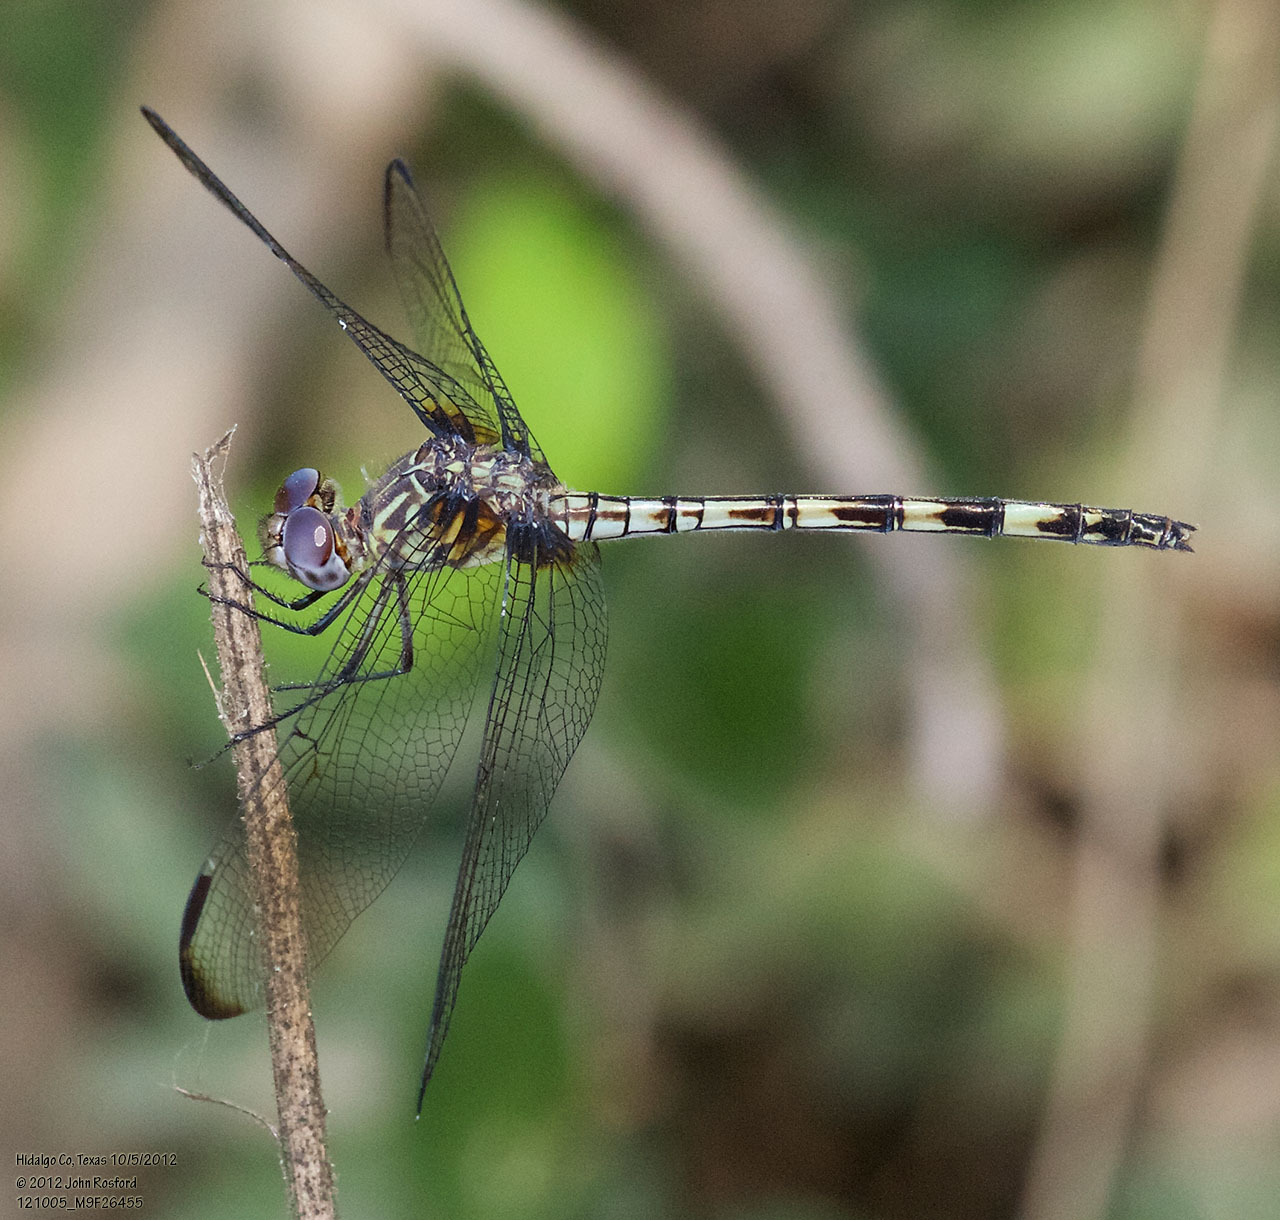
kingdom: Animalia
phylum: Arthropoda
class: Insecta
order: Odonata
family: Libellulidae
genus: Dythemis
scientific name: Dythemis nigrescens
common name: Black setwing
